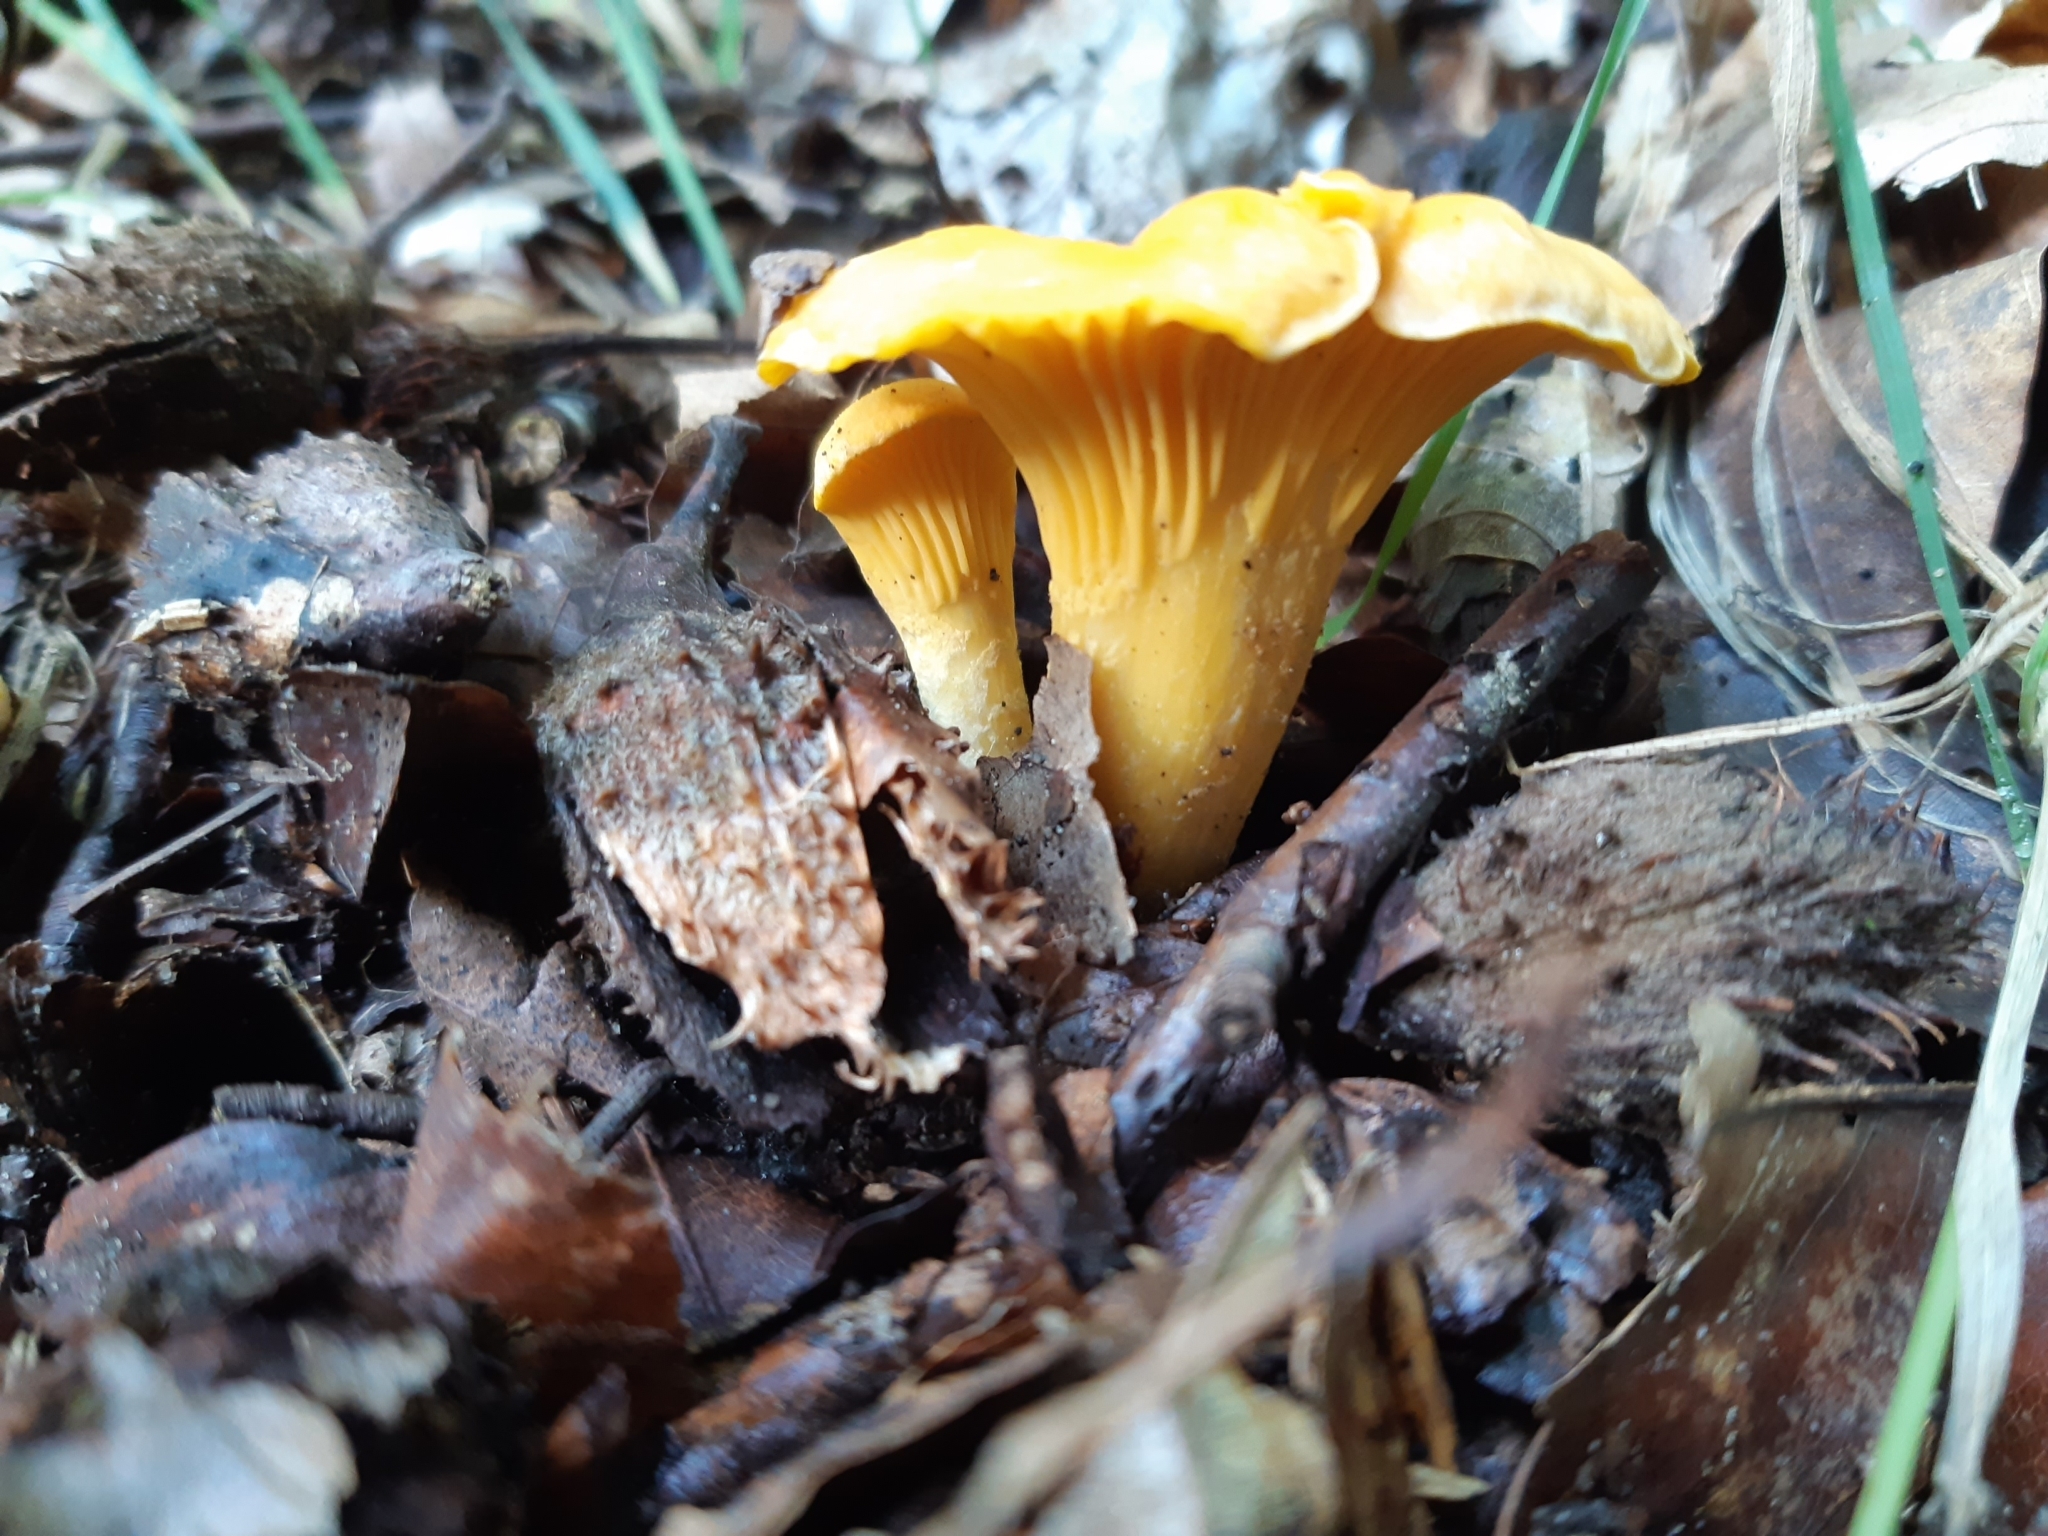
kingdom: Fungi
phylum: Basidiomycota
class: Agaricomycetes
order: Cantharellales
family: Hydnaceae
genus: Cantharellus
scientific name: Cantharellus cibarius
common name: Chanterelle
